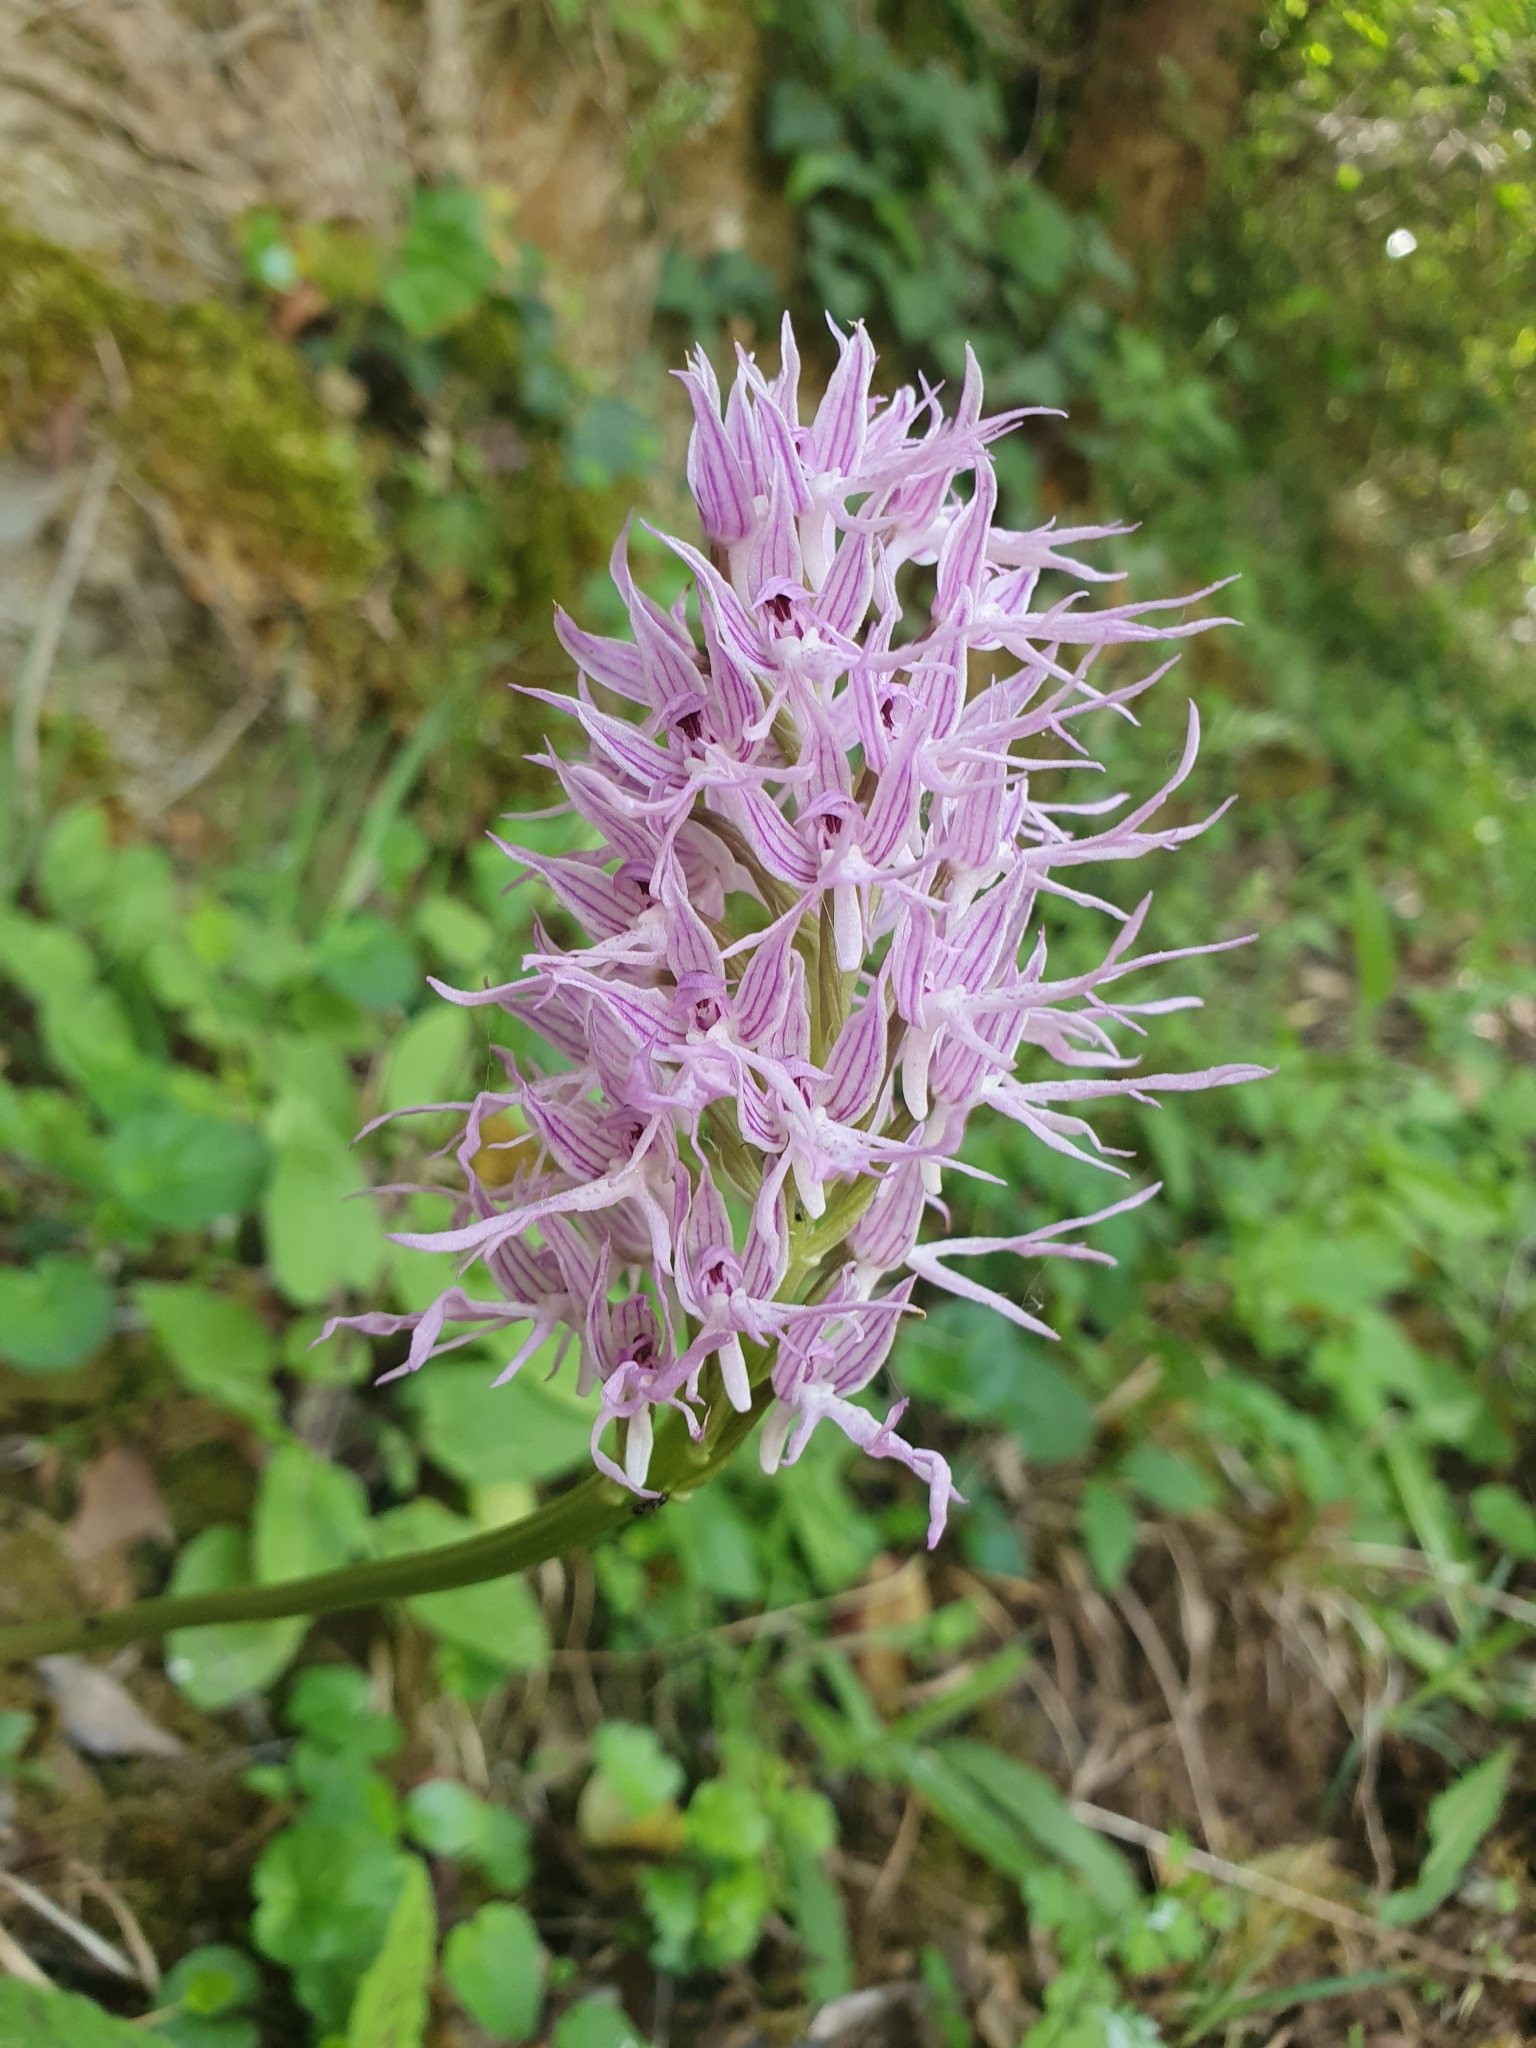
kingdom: Plantae
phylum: Tracheophyta
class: Liliopsida
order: Asparagales
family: Orchidaceae
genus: Orchis
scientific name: Orchis italica
